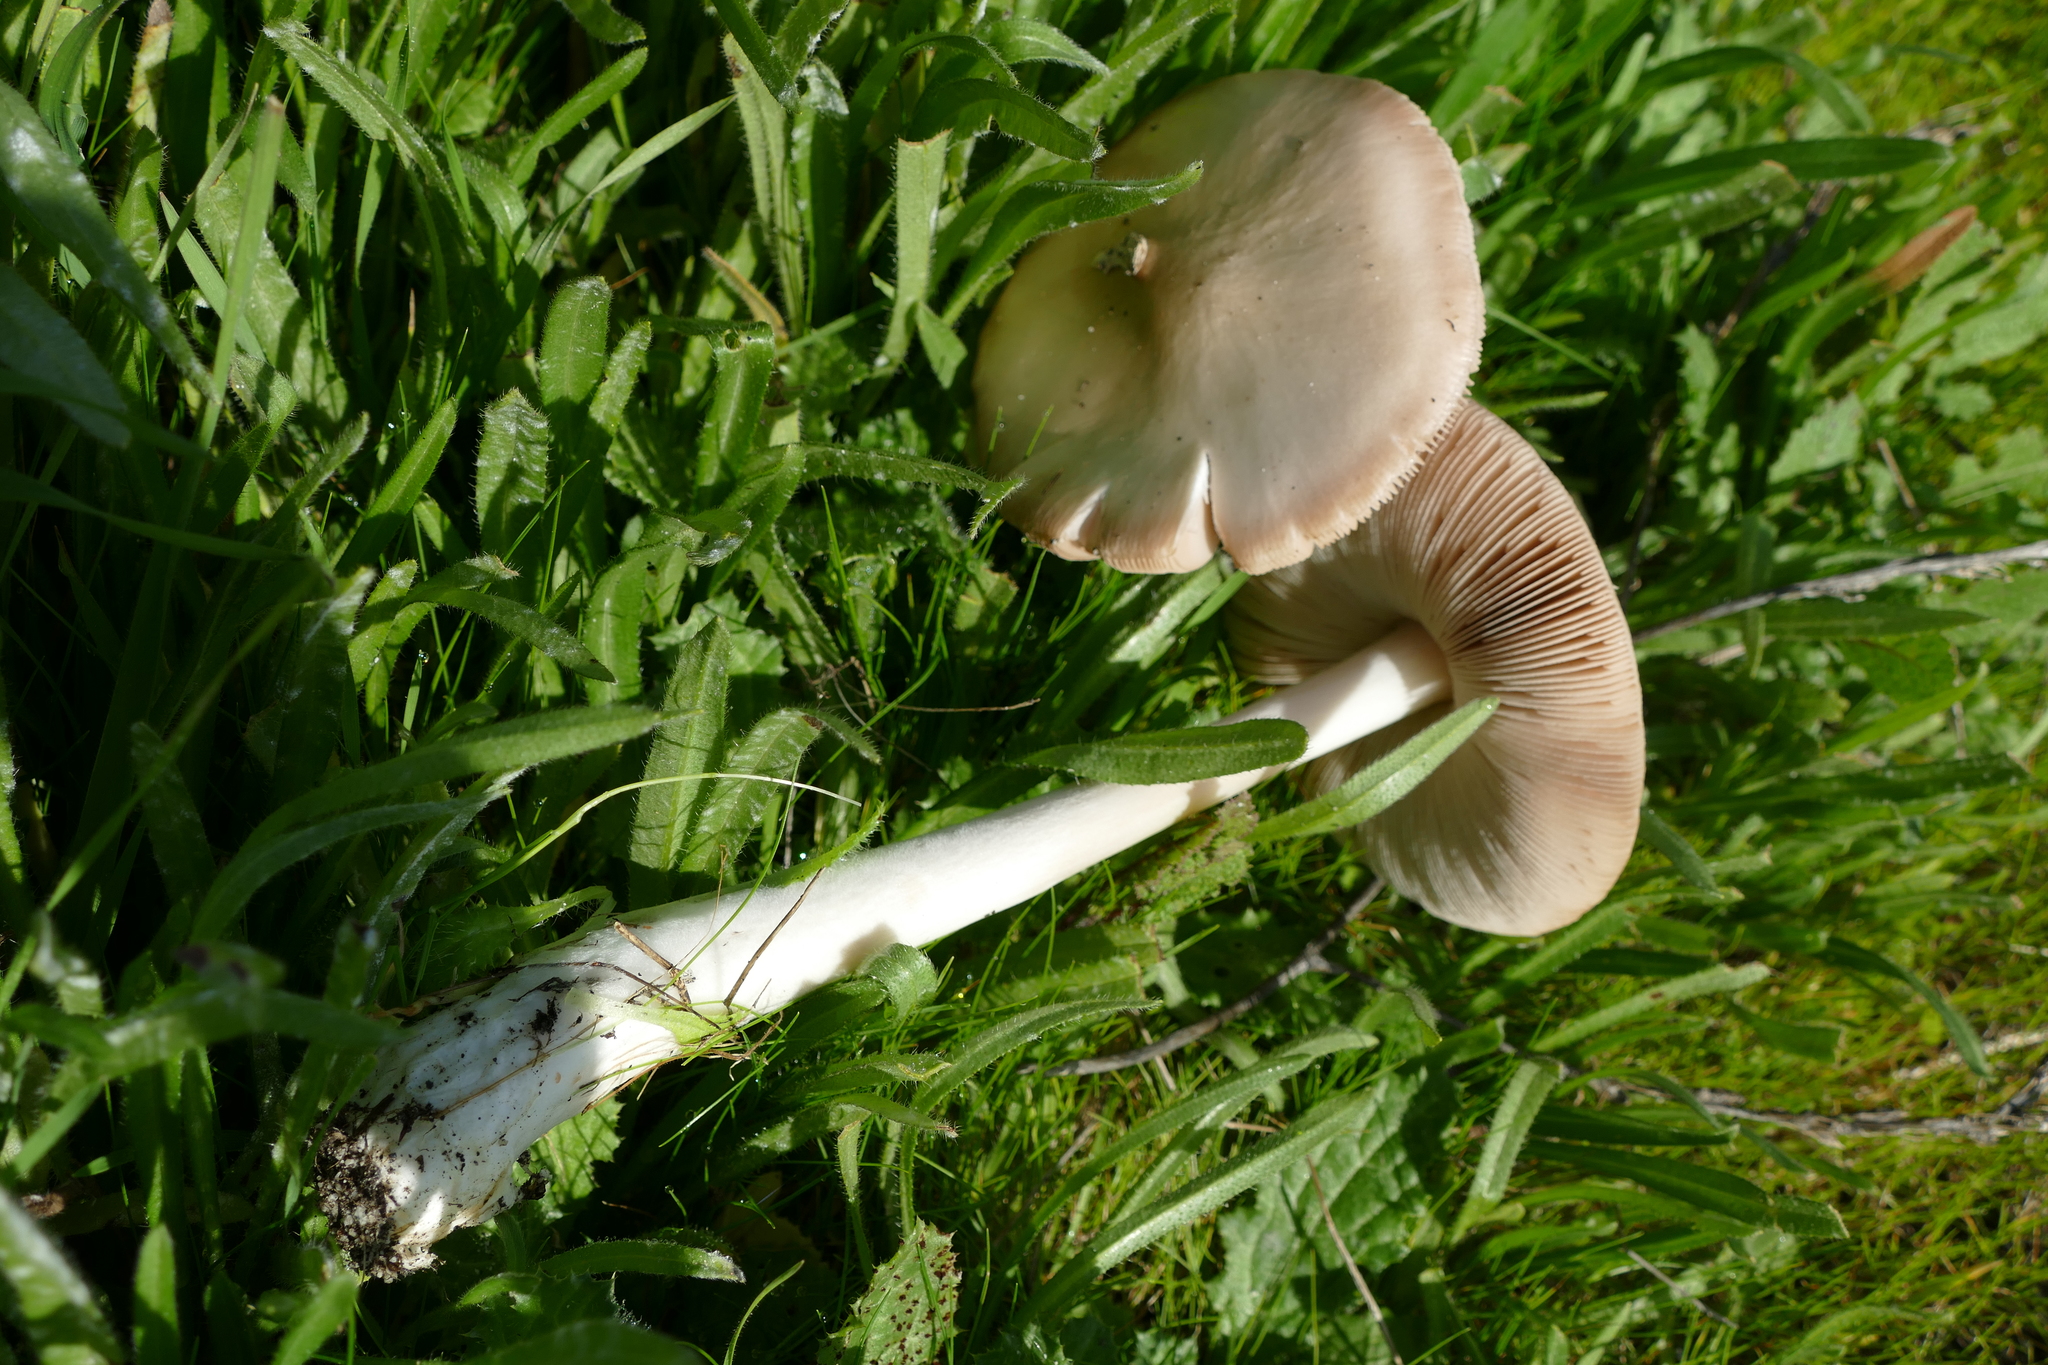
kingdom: Fungi
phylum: Basidiomycota
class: Agaricomycetes
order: Agaricales
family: Pluteaceae
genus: Volvopluteus
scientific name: Volvopluteus gloiocephalus
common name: Stubble rosegill
